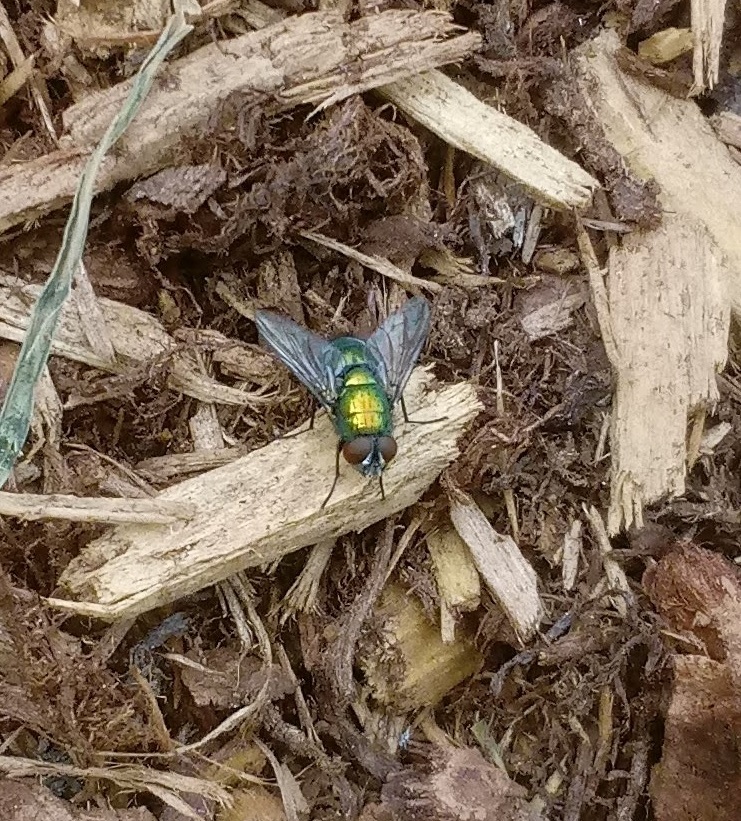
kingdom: Animalia
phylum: Arthropoda
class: Insecta
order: Diptera
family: Calliphoridae
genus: Lucilia
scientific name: Lucilia sericata
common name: Blow fly
